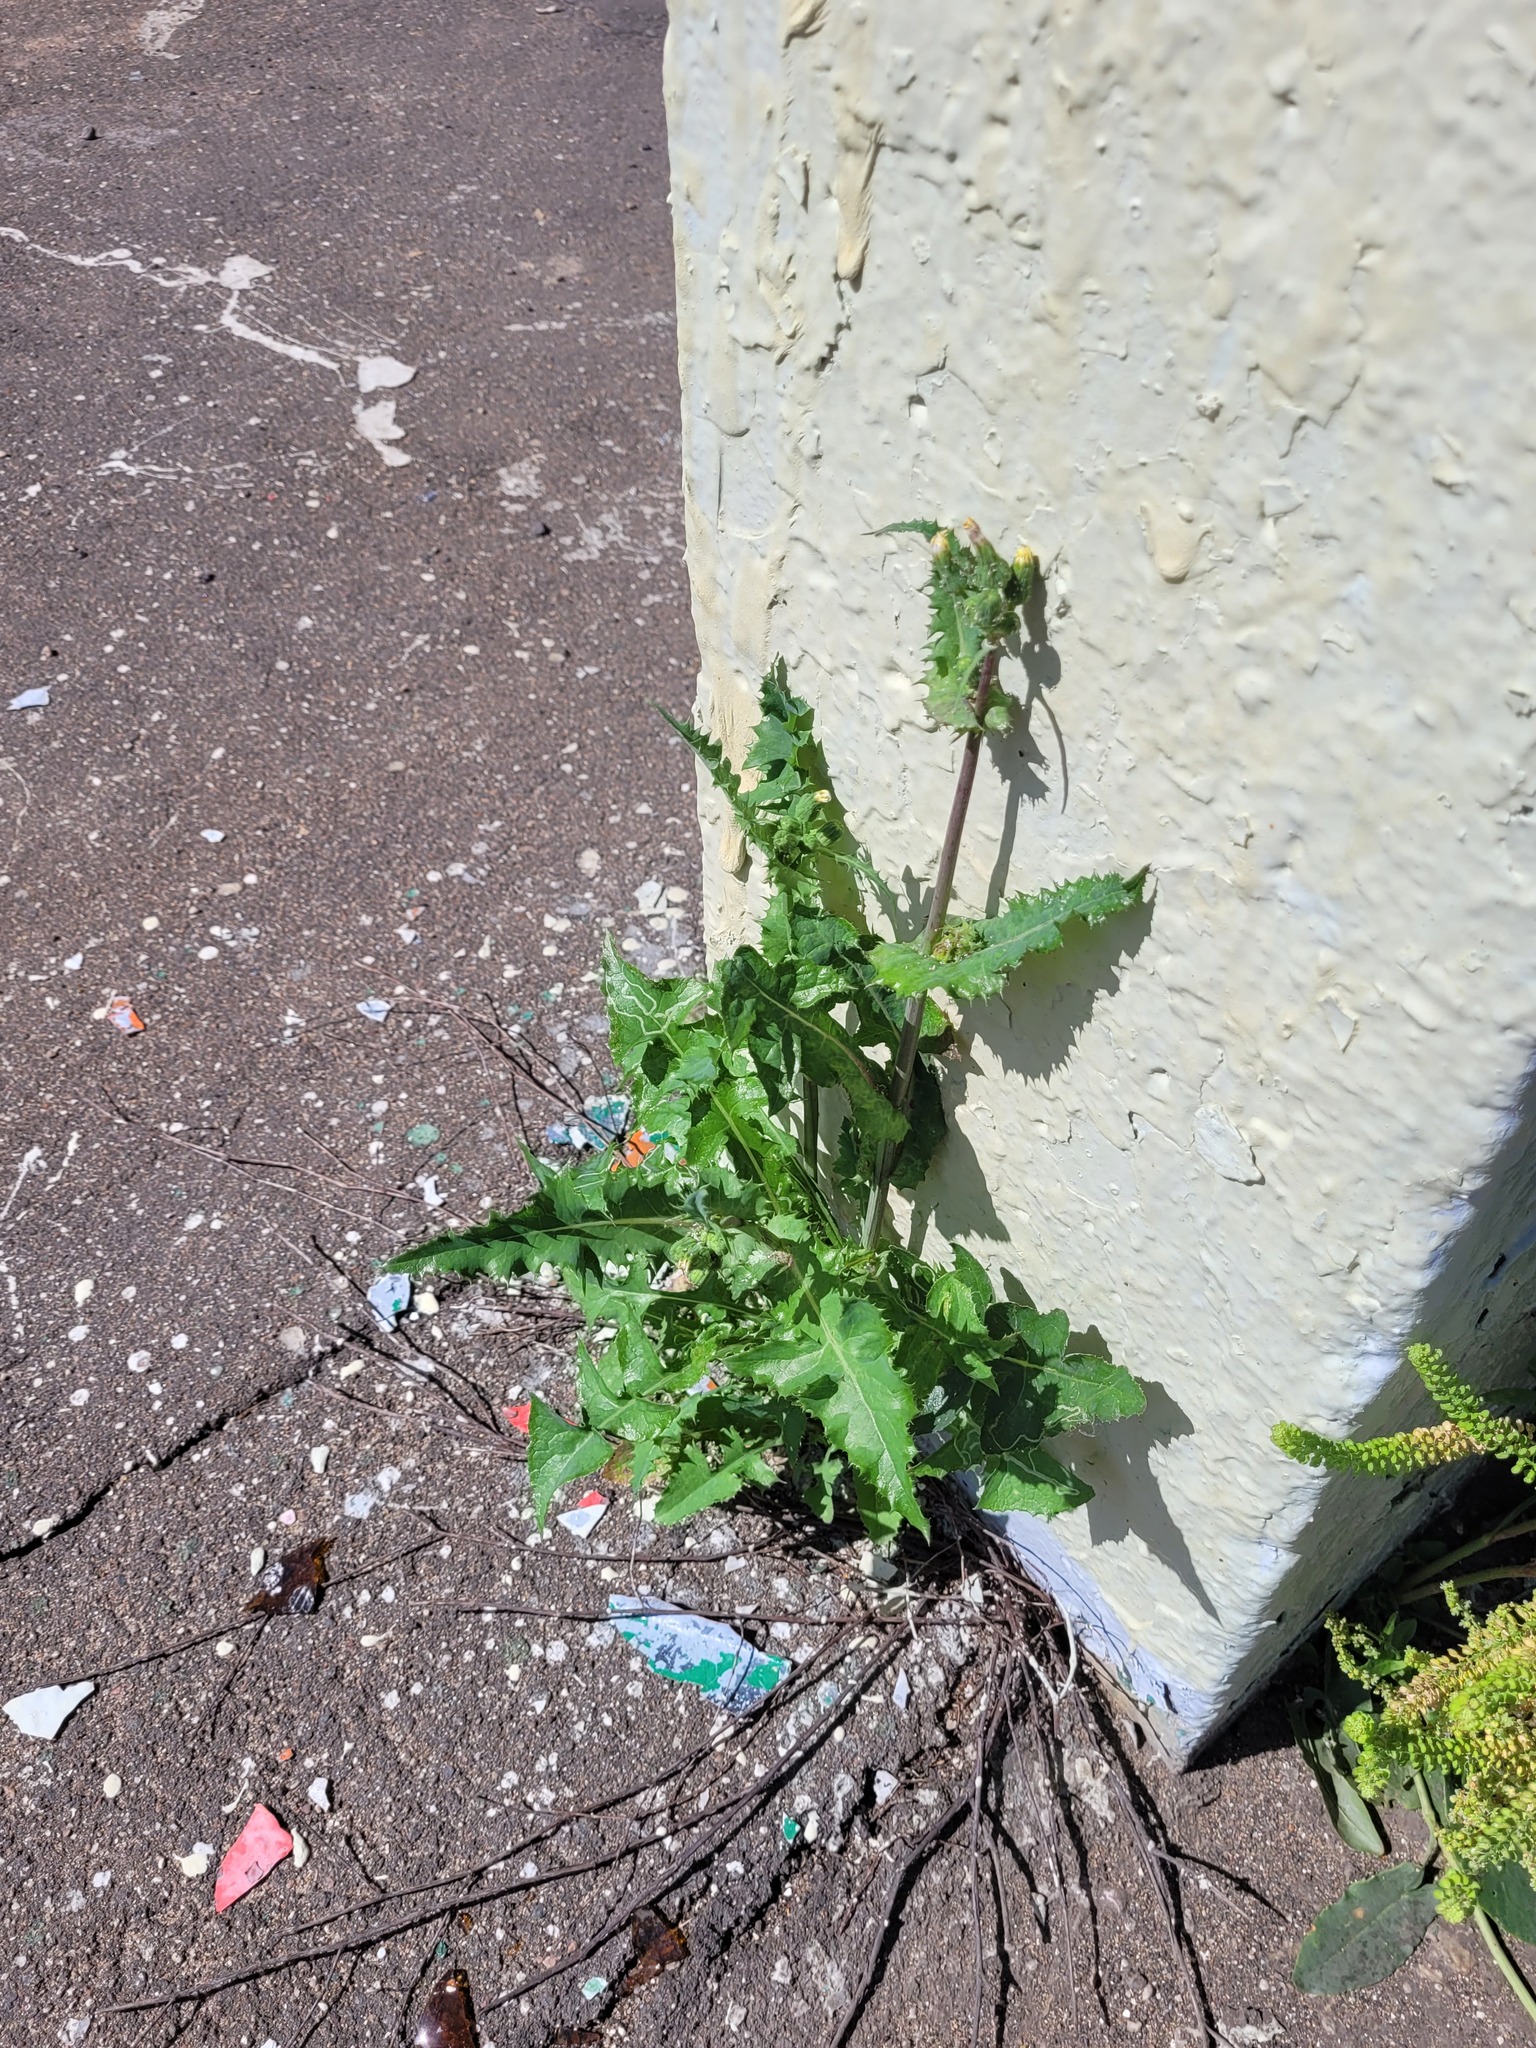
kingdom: Plantae
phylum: Tracheophyta
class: Magnoliopsida
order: Asterales
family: Asteraceae
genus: Sonchus
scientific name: Sonchus oleraceus
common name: Common sowthistle
